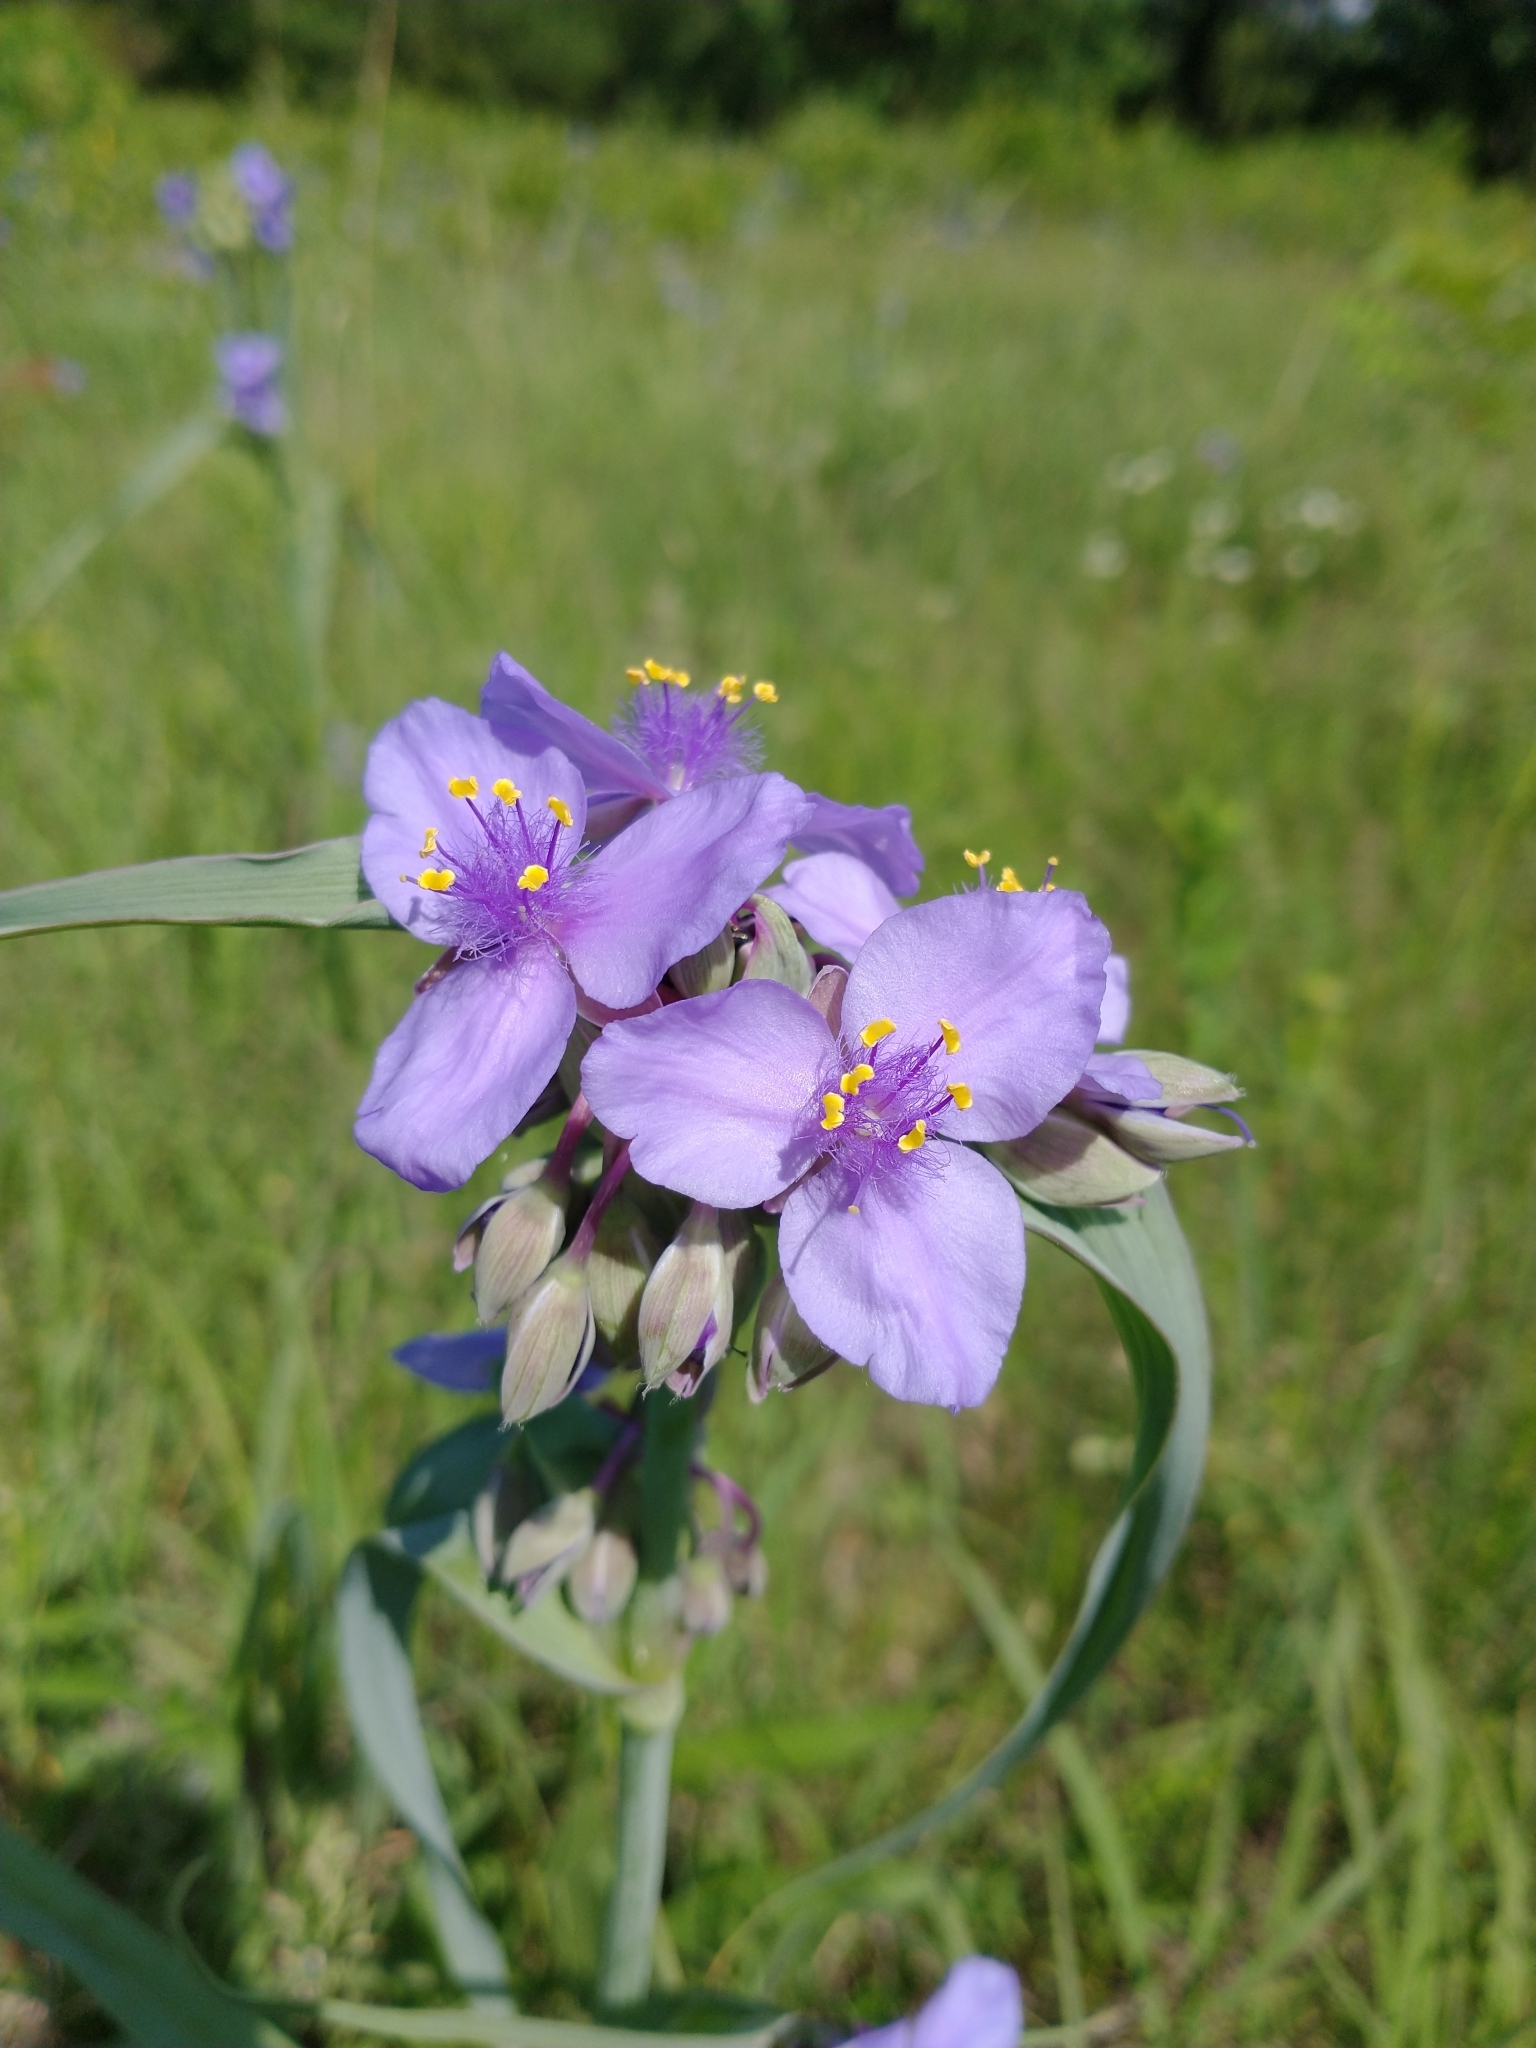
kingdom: Plantae
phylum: Tracheophyta
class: Liliopsida
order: Commelinales
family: Commelinaceae
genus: Tradescantia
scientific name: Tradescantia ohiensis
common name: Ohio spiderwort
